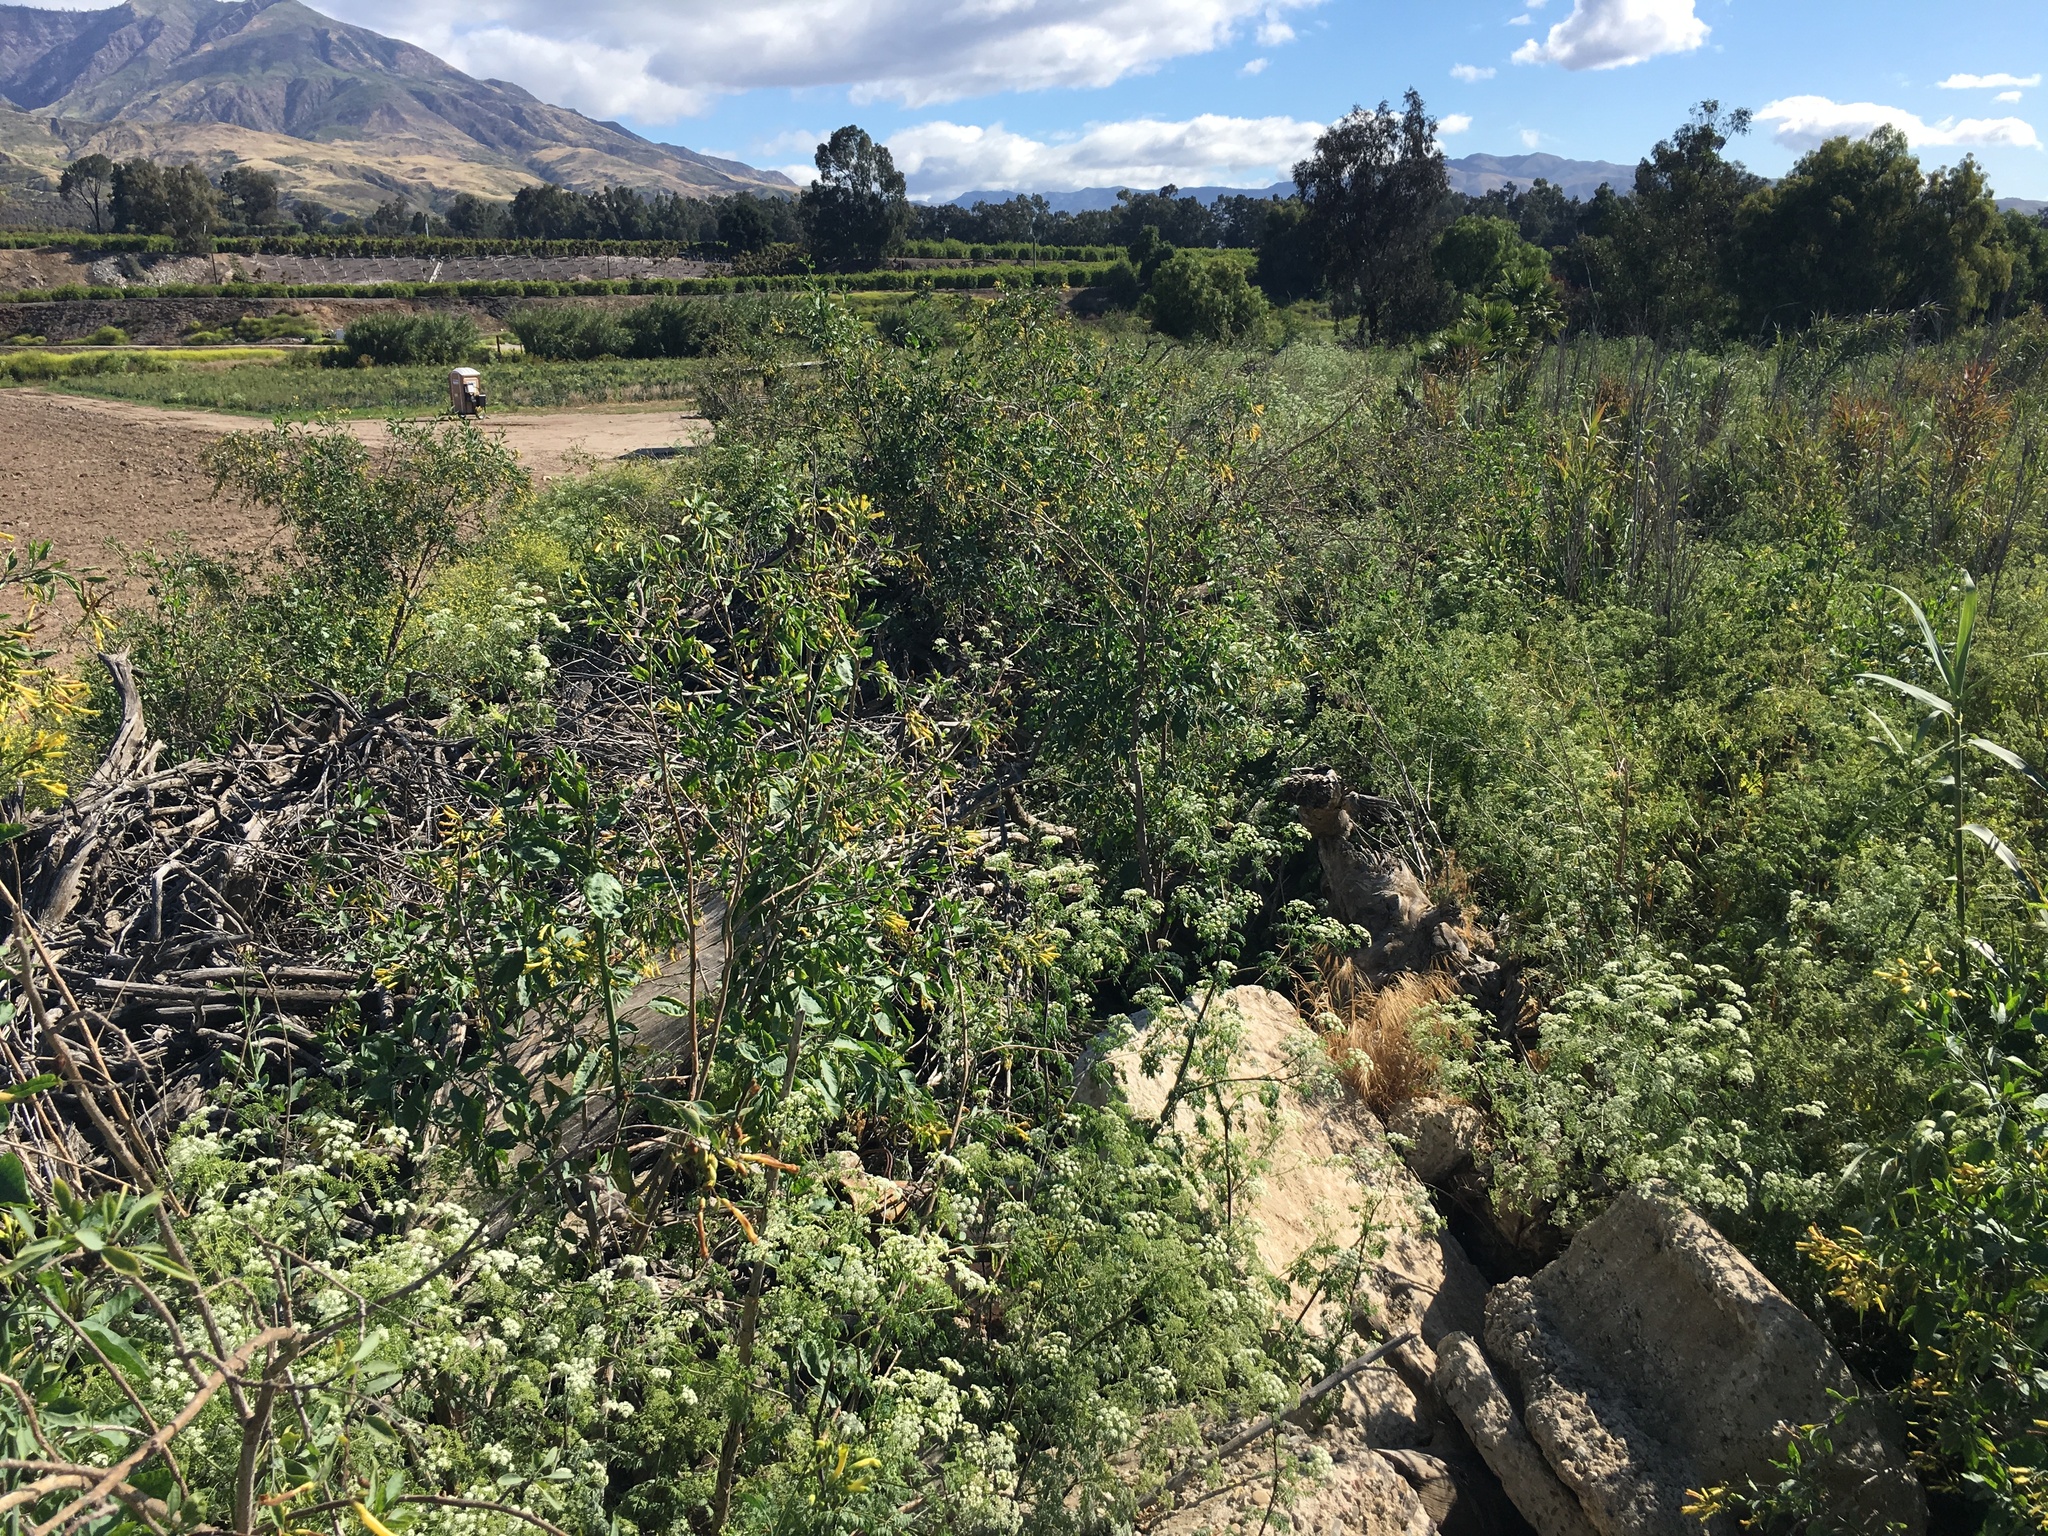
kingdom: Plantae
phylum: Tracheophyta
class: Magnoliopsida
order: Solanales
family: Solanaceae
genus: Nicotiana
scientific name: Nicotiana glauca
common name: Tree tobacco
